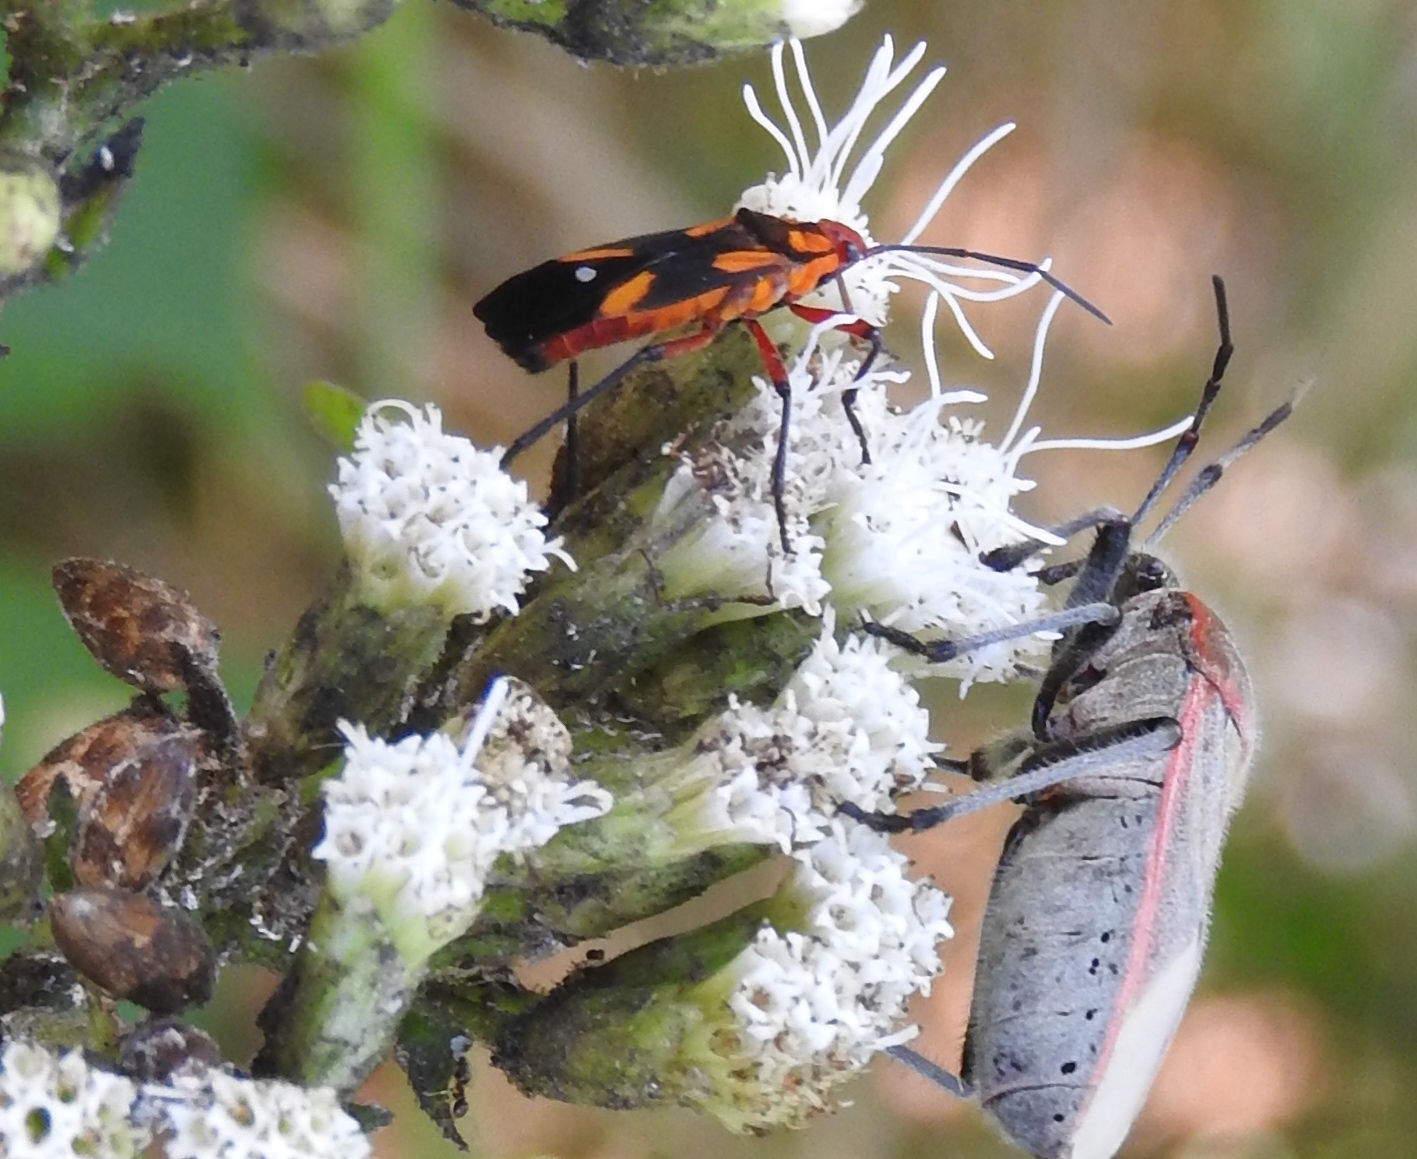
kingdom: Animalia
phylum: Arthropoda
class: Insecta
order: Hemiptera
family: Lygaeidae
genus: Oncopeltus
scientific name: Oncopeltus
